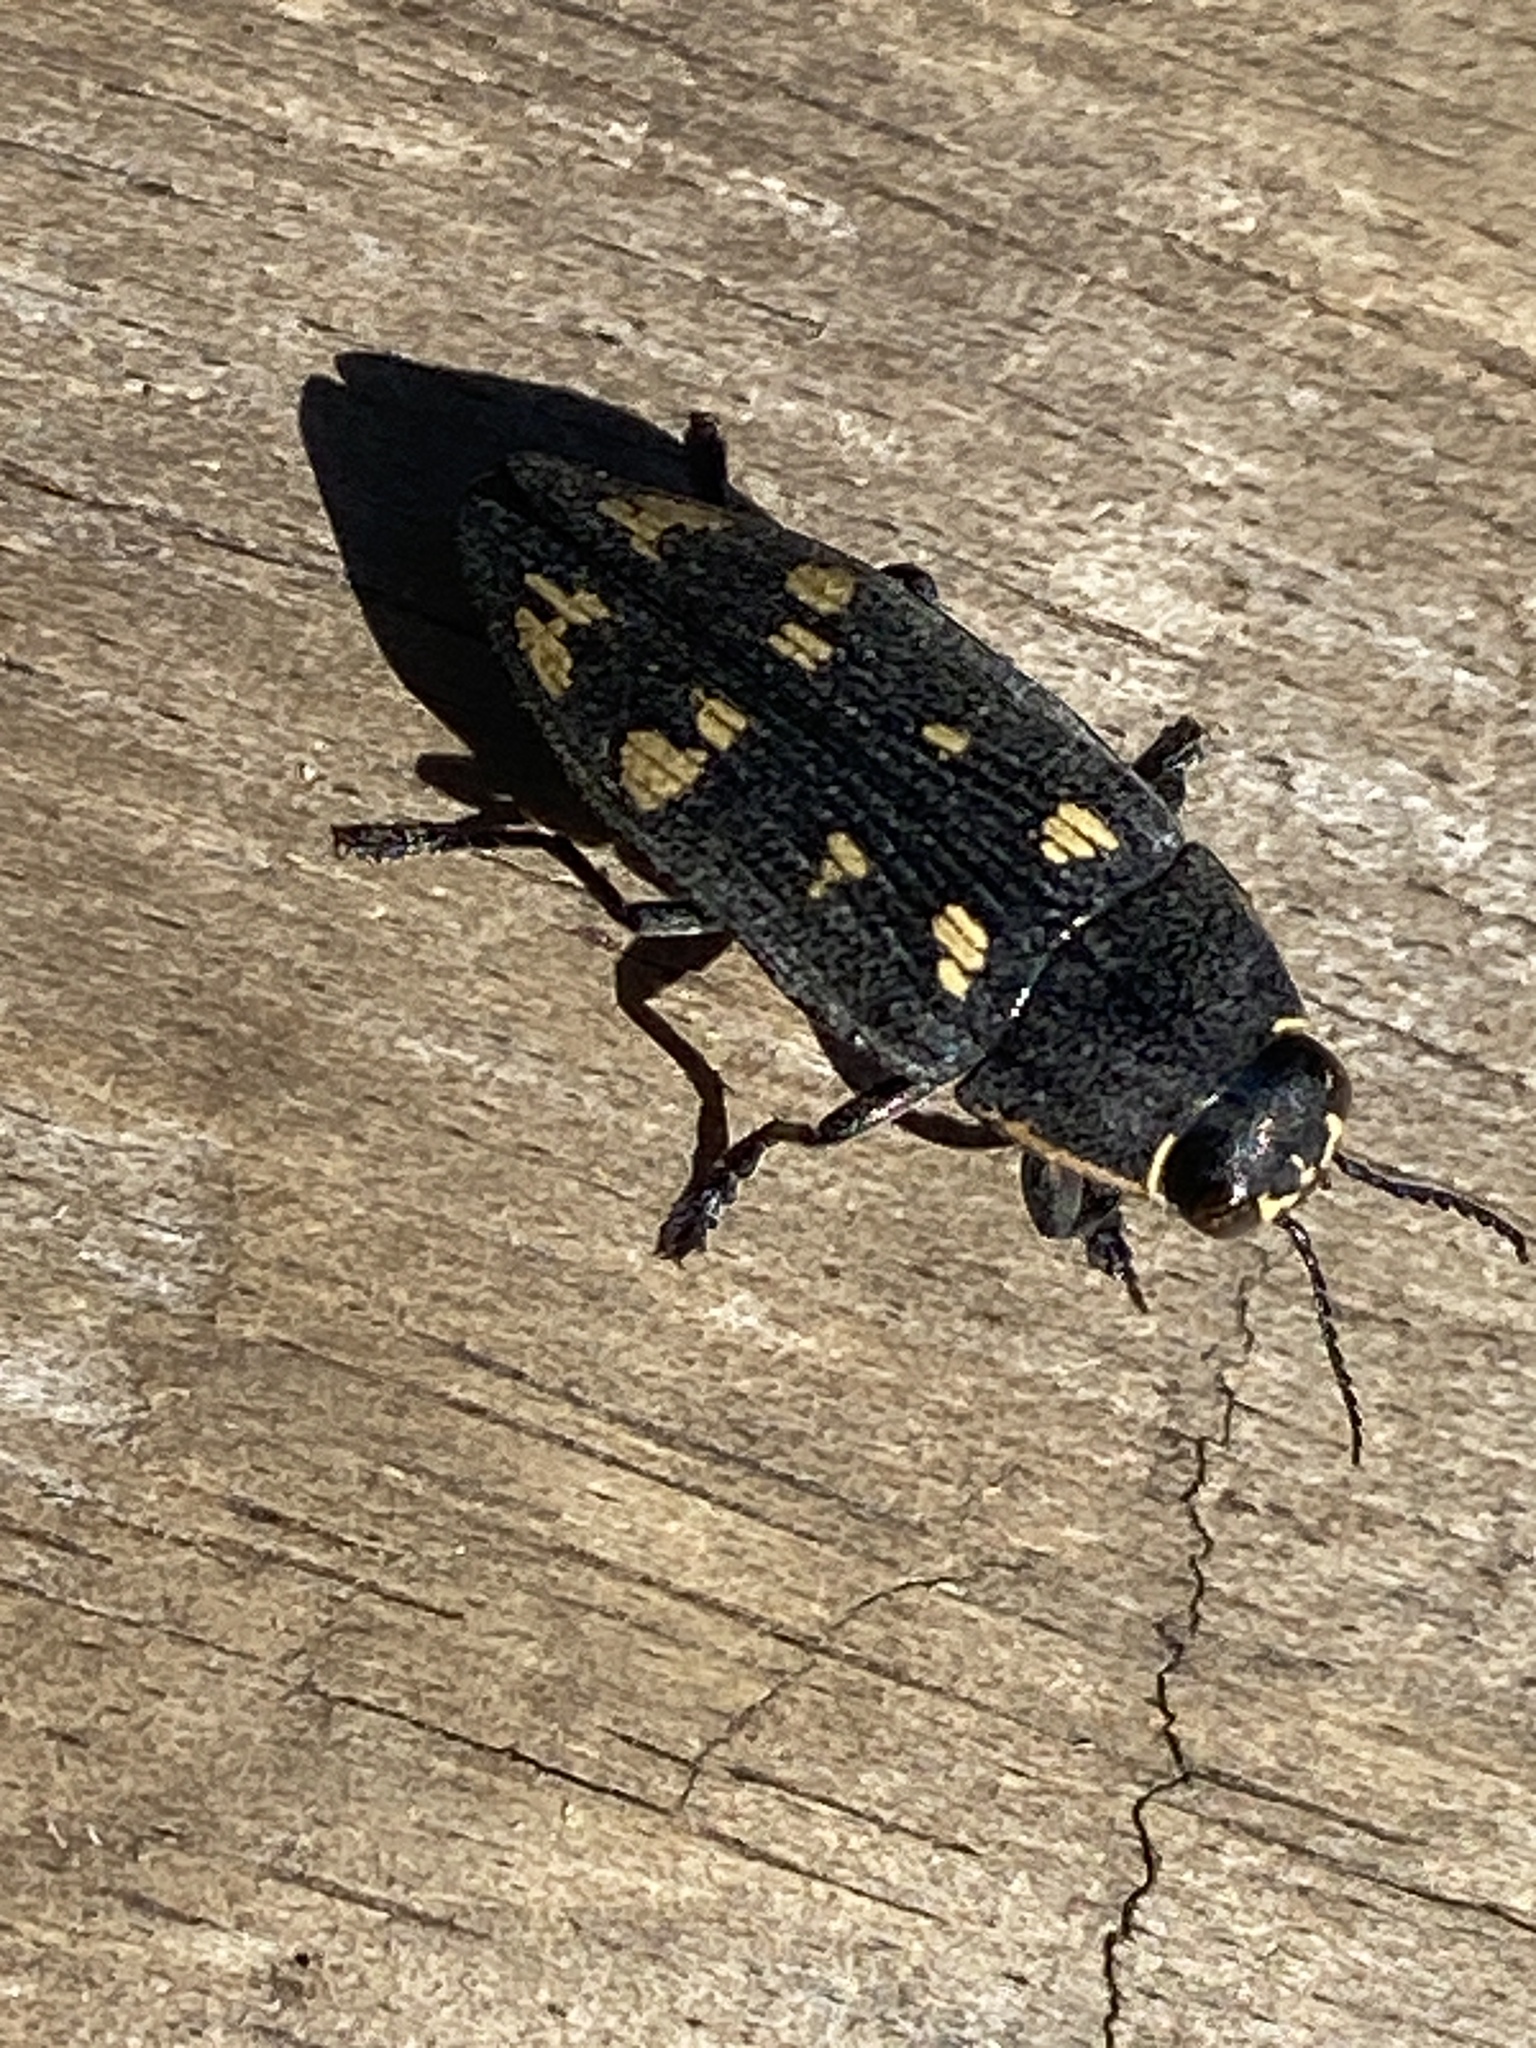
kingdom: Animalia
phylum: Arthropoda
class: Insecta
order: Coleoptera
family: Buprestidae
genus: Buprestis
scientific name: Buprestis novemmaculata
